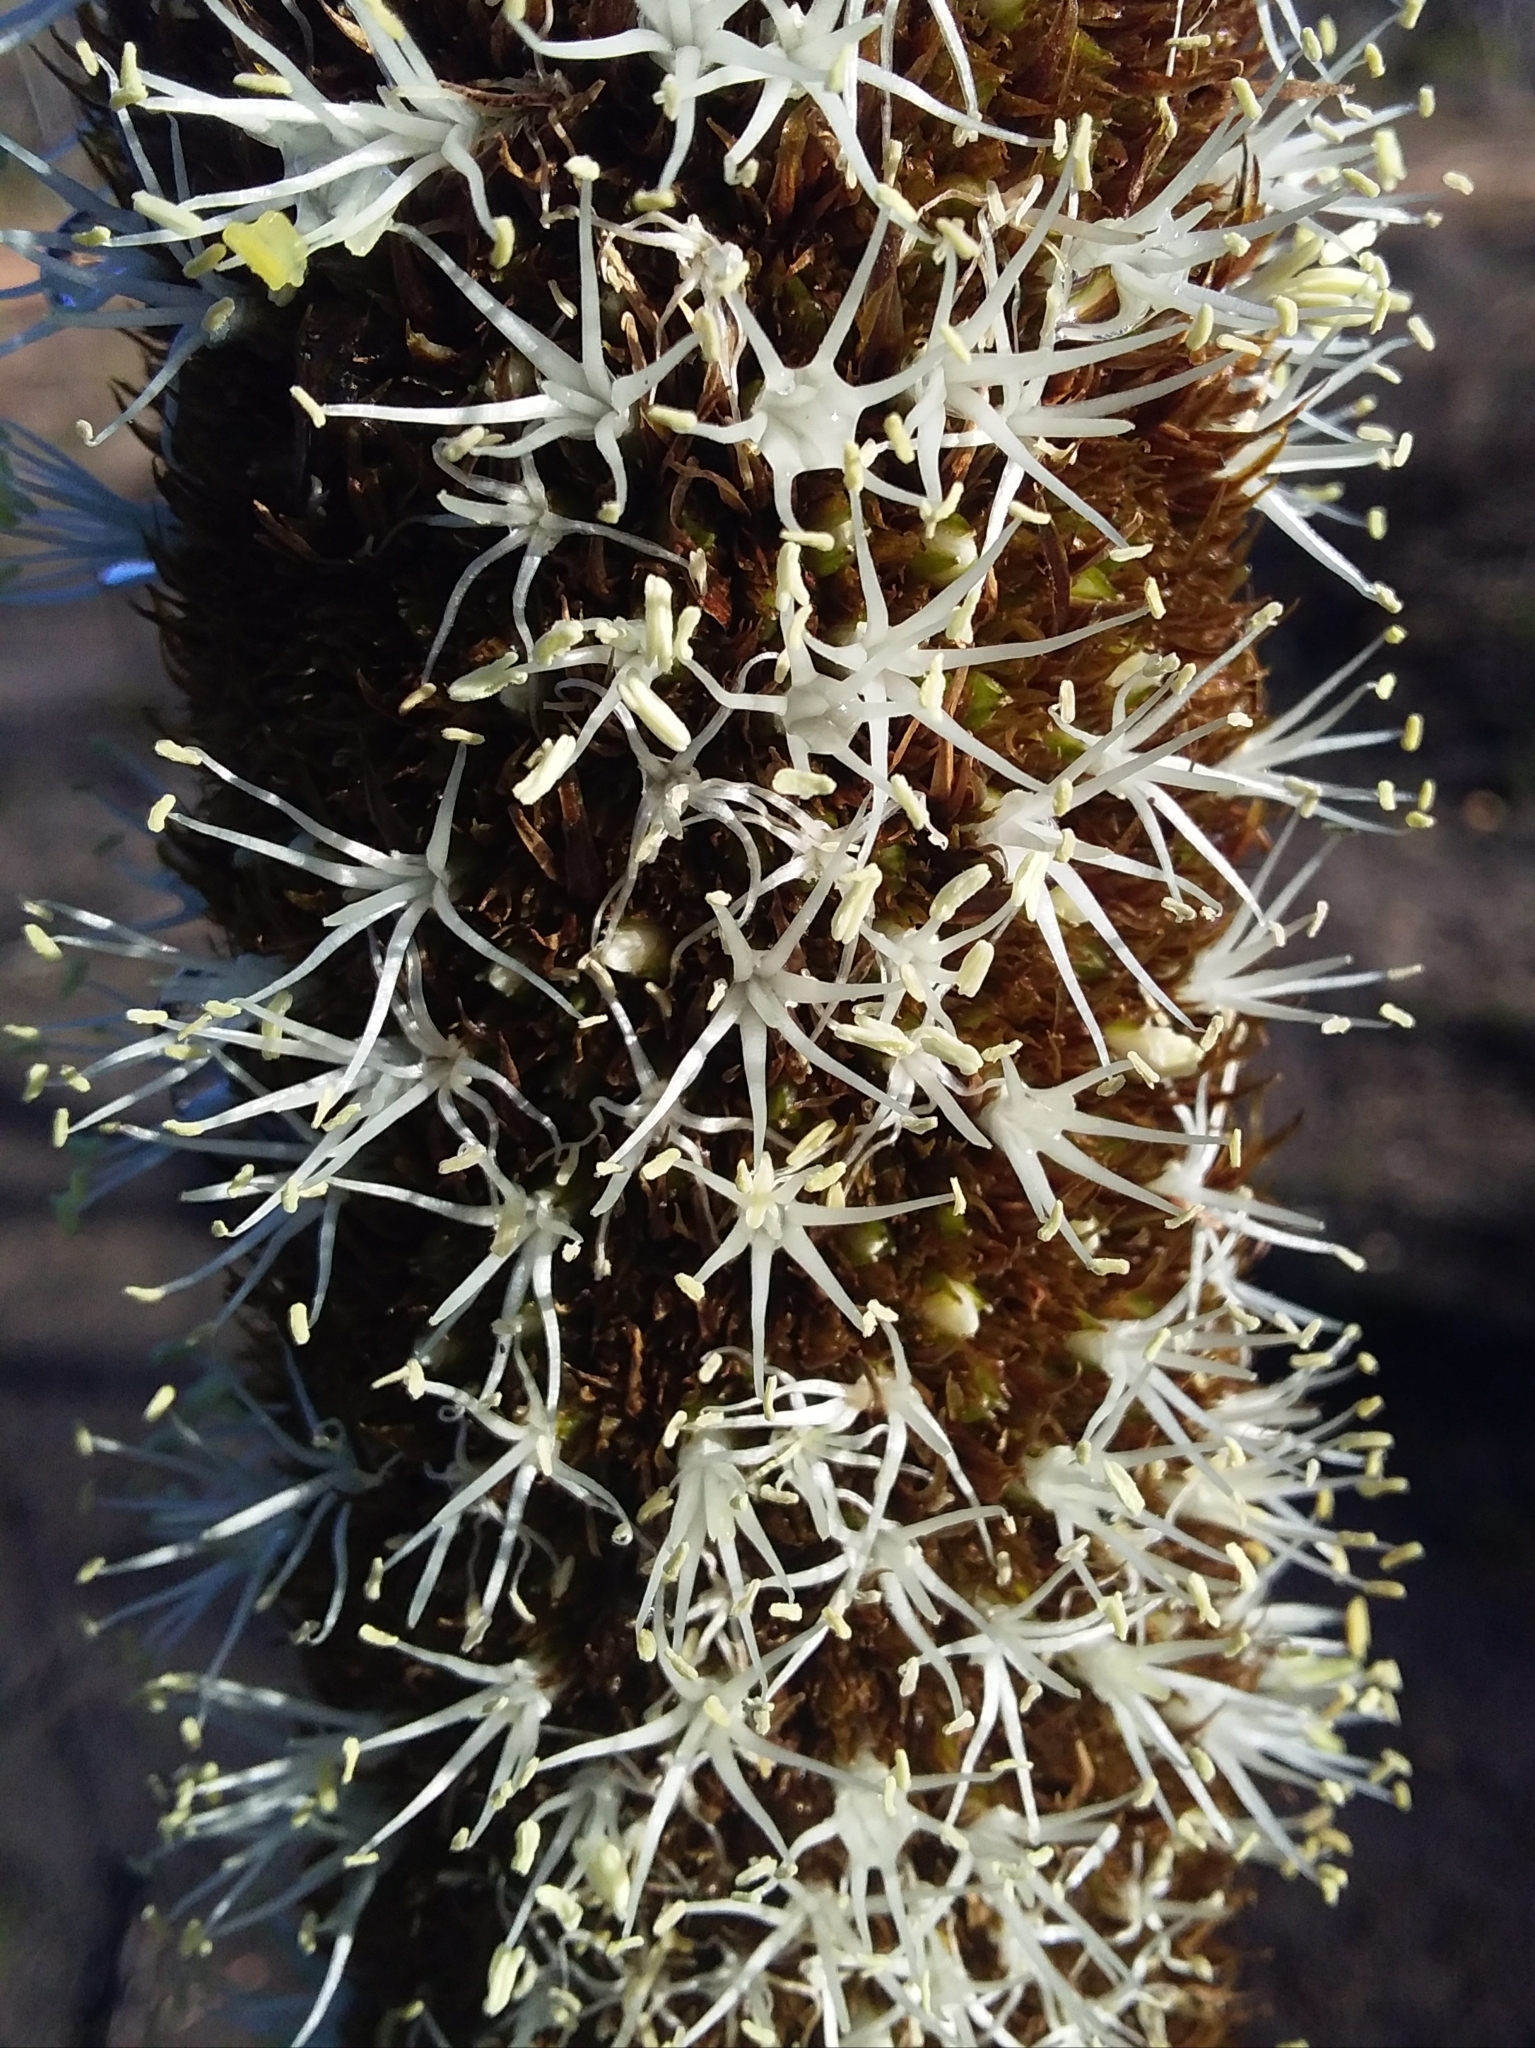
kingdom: Plantae
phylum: Tracheophyta
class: Liliopsida
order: Asparagales
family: Asphodelaceae
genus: Xanthorrhoea
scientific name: Xanthorrhoea semiplana
